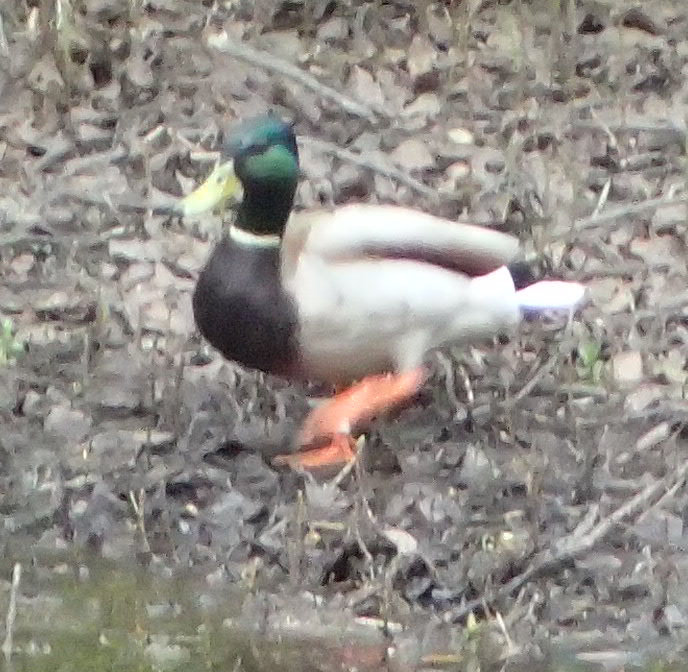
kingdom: Animalia
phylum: Chordata
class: Aves
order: Anseriformes
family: Anatidae
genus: Anas
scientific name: Anas platyrhynchos
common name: Mallard
